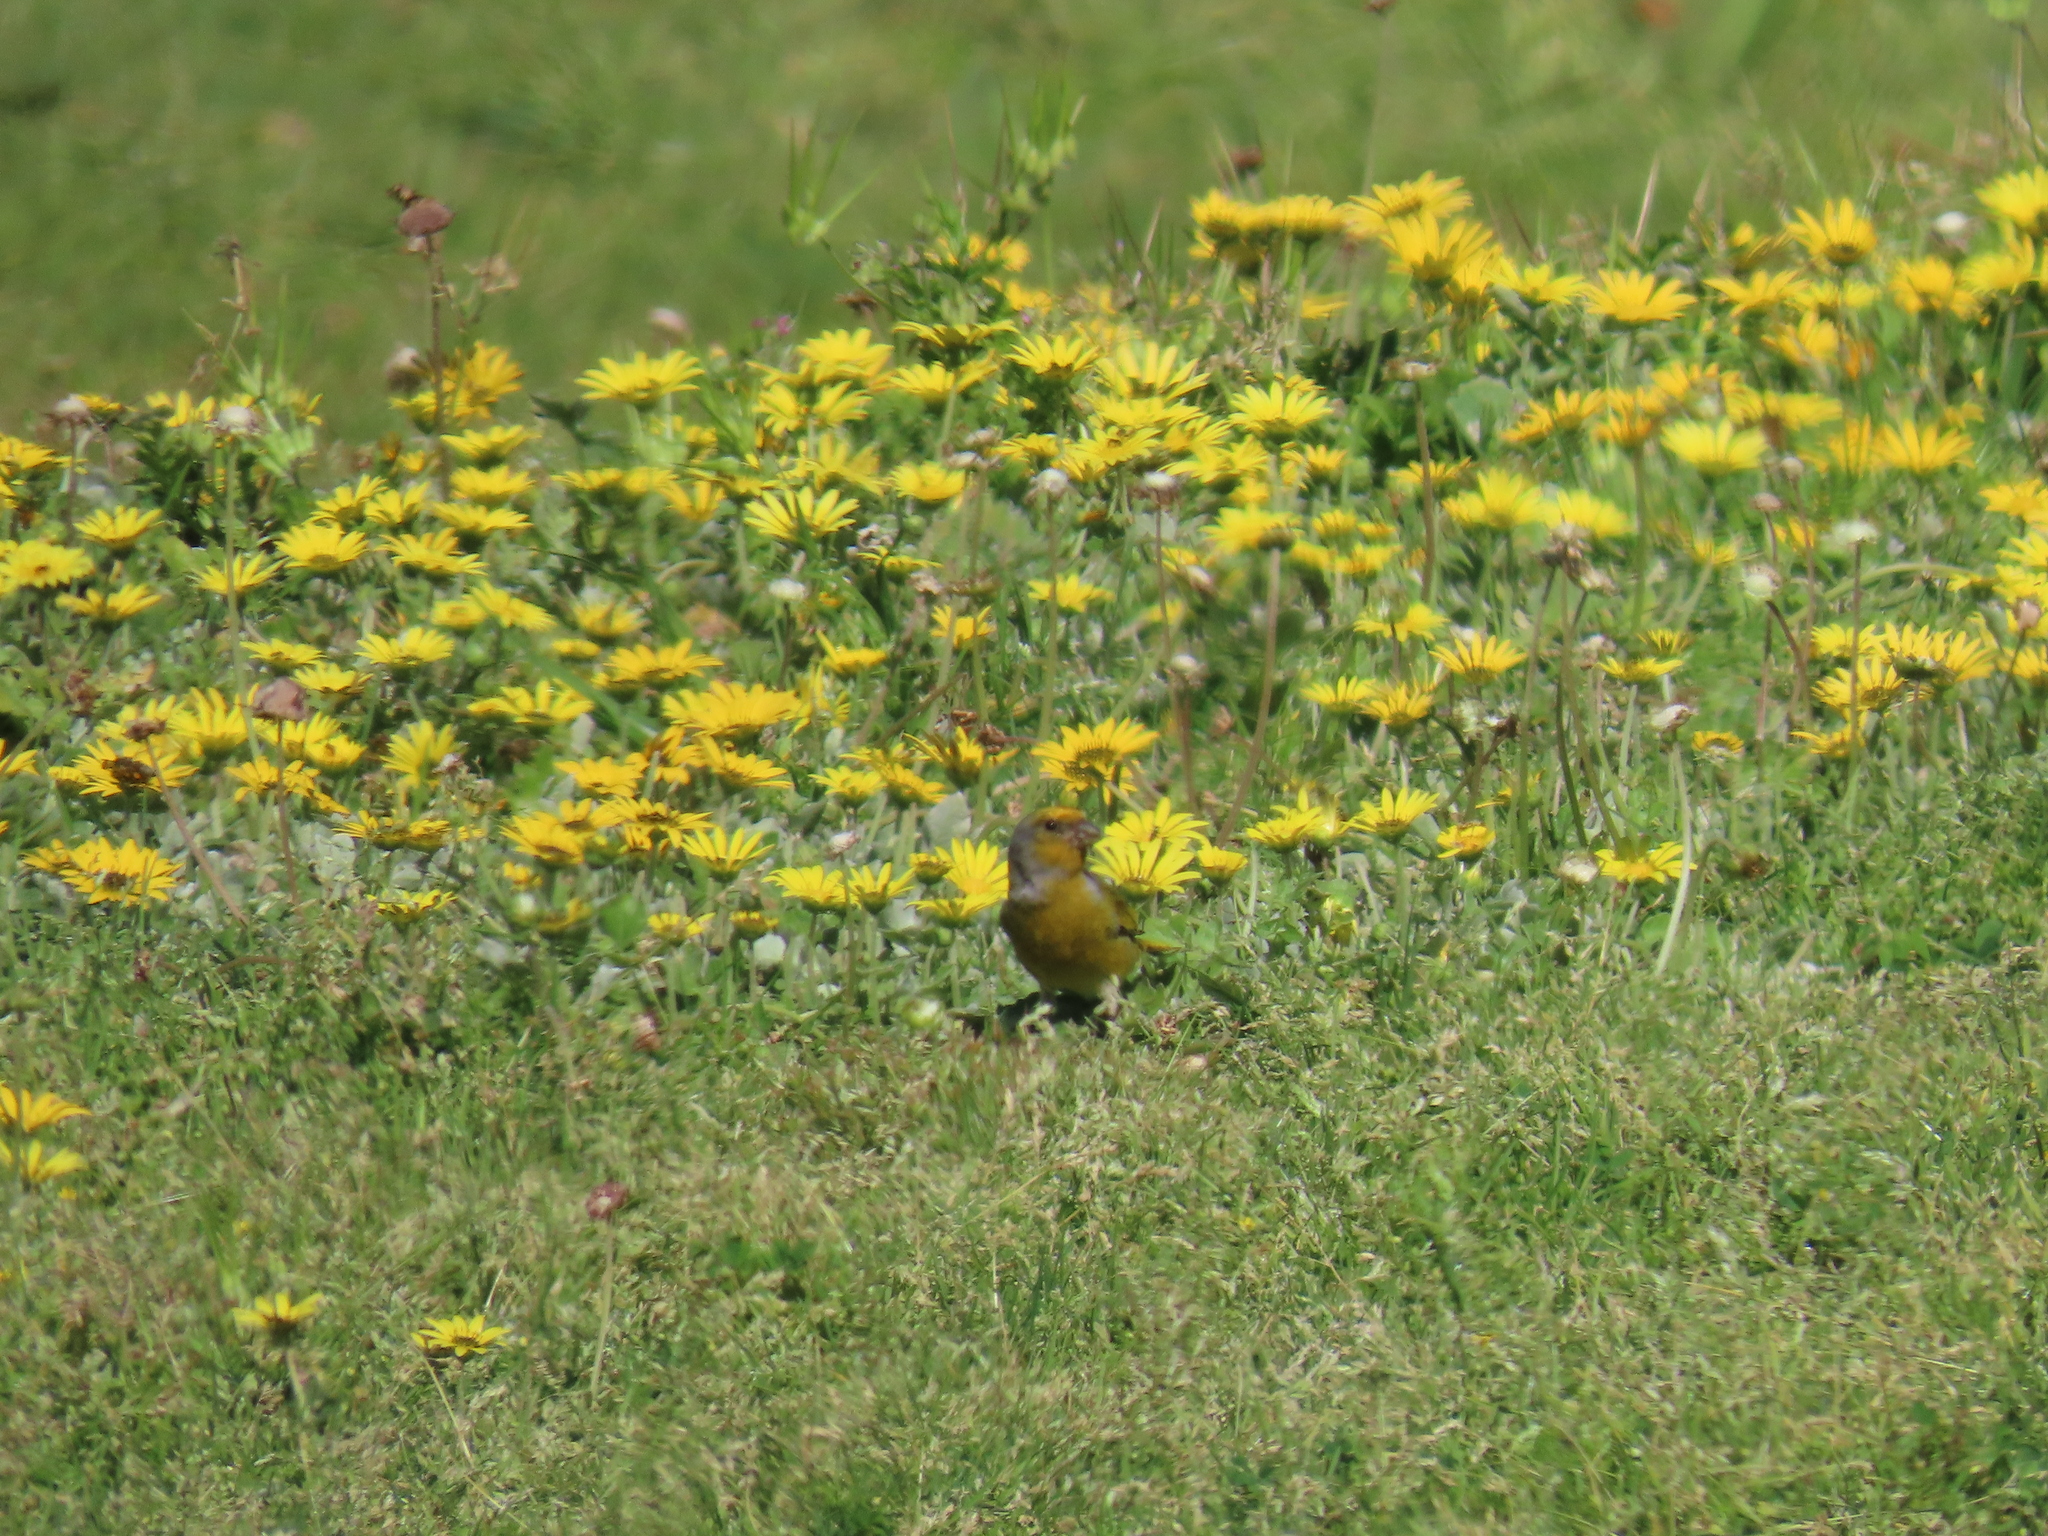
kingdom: Animalia
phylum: Chordata
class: Aves
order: Passeriformes
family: Fringillidae
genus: Serinus
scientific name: Serinus canicollis
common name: Cape canary
